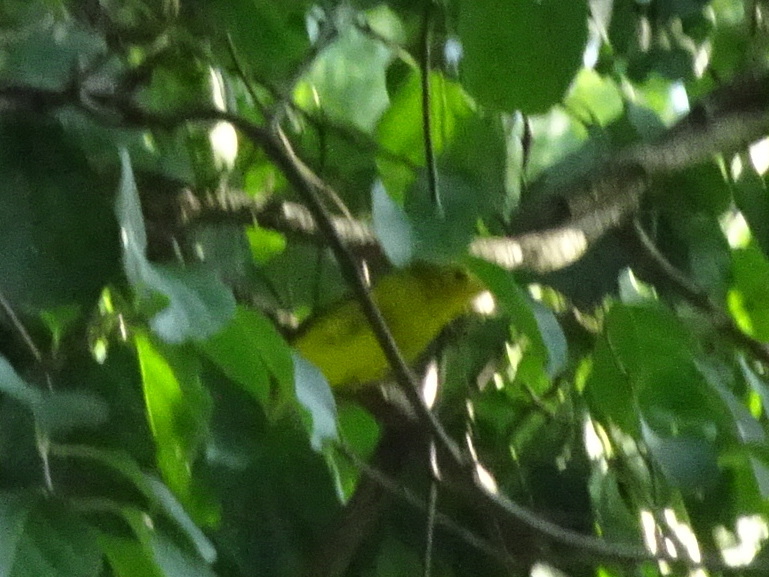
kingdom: Animalia
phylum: Chordata
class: Aves
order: Passeriformes
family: Parulidae
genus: Cardellina
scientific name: Cardellina pusilla
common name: Wilson's warbler
